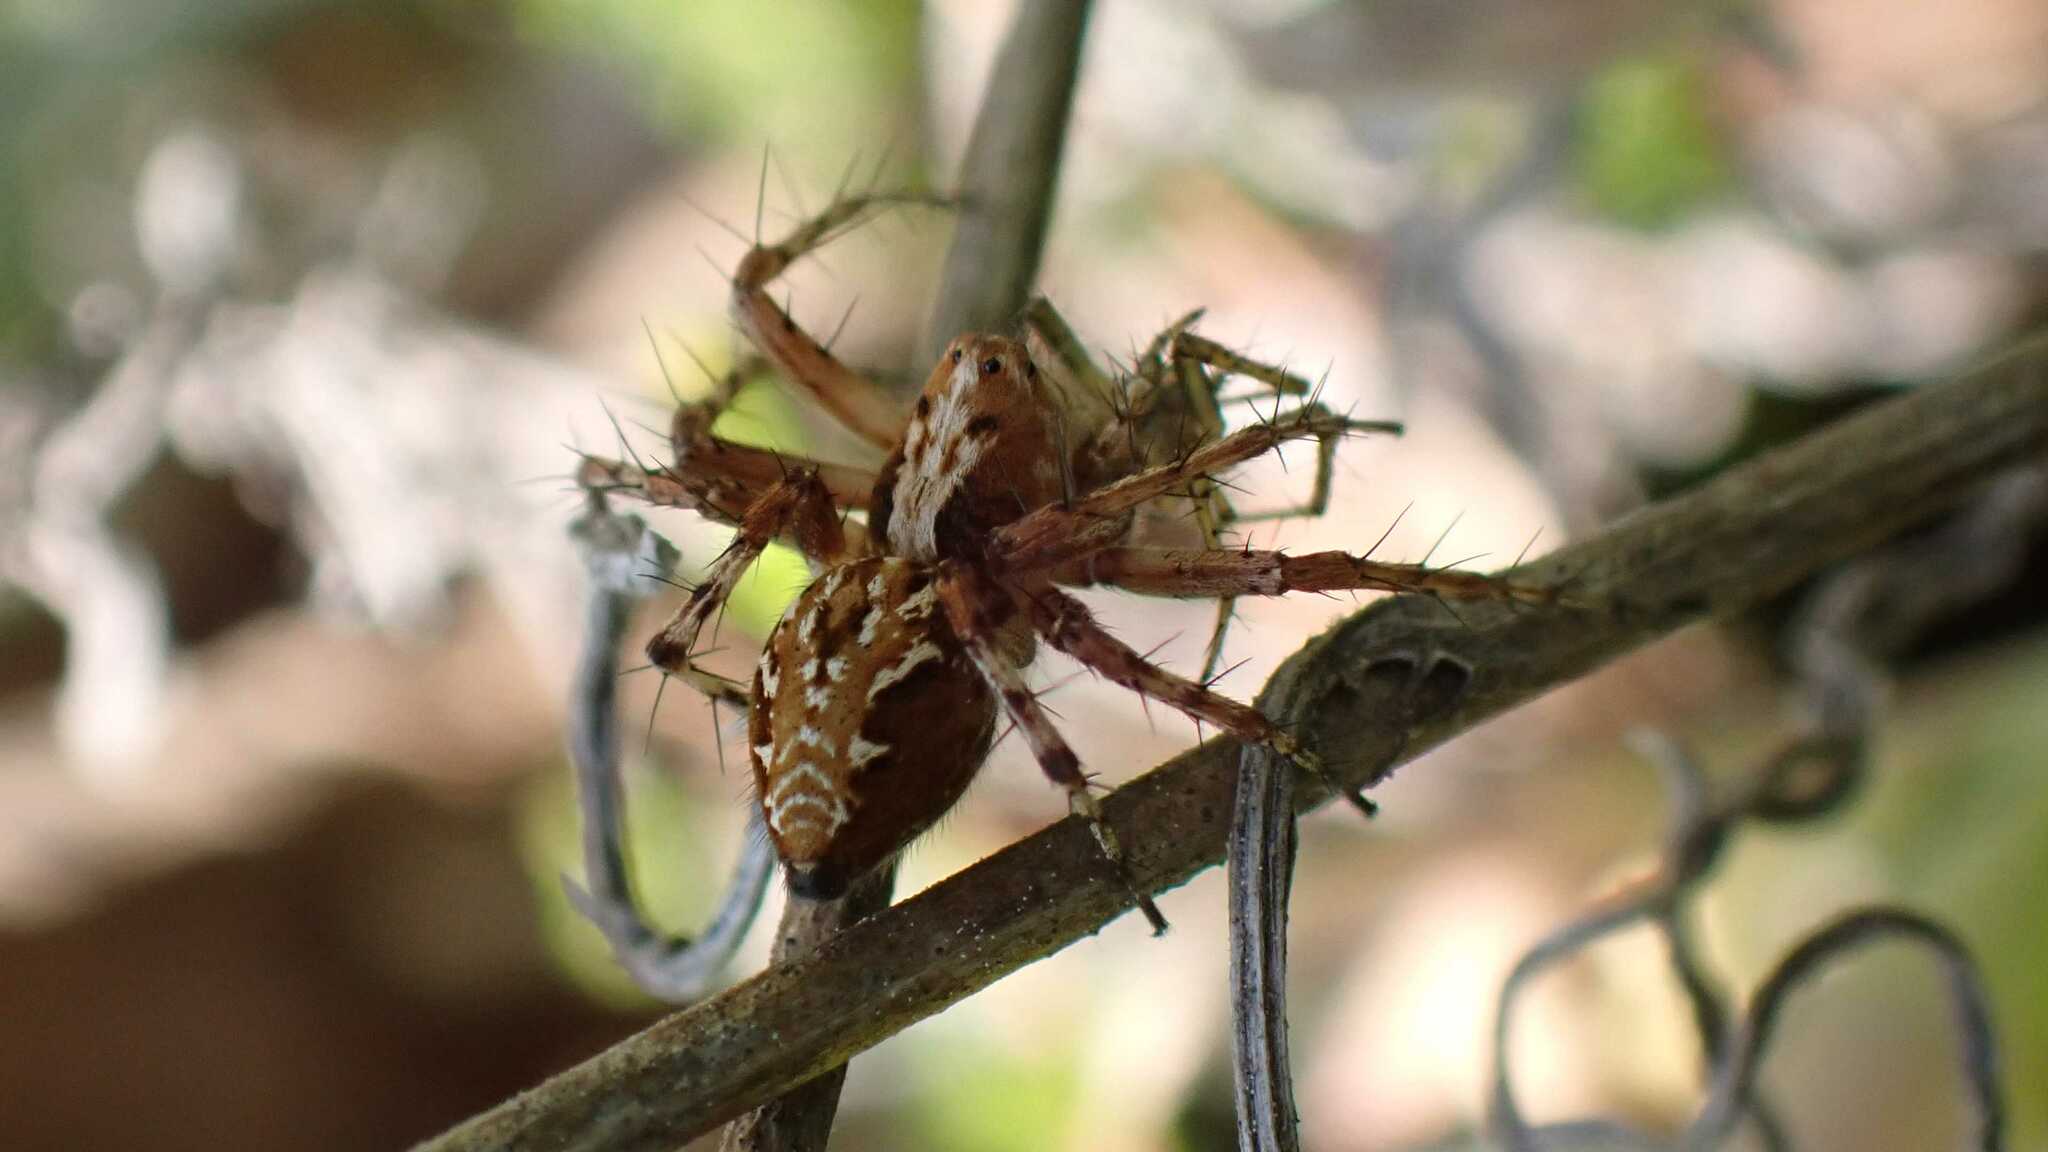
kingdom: Animalia
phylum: Arthropoda
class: Arachnida
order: Araneae
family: Oxyopidae
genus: Oxyopes
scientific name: Oxyopes ramosus
